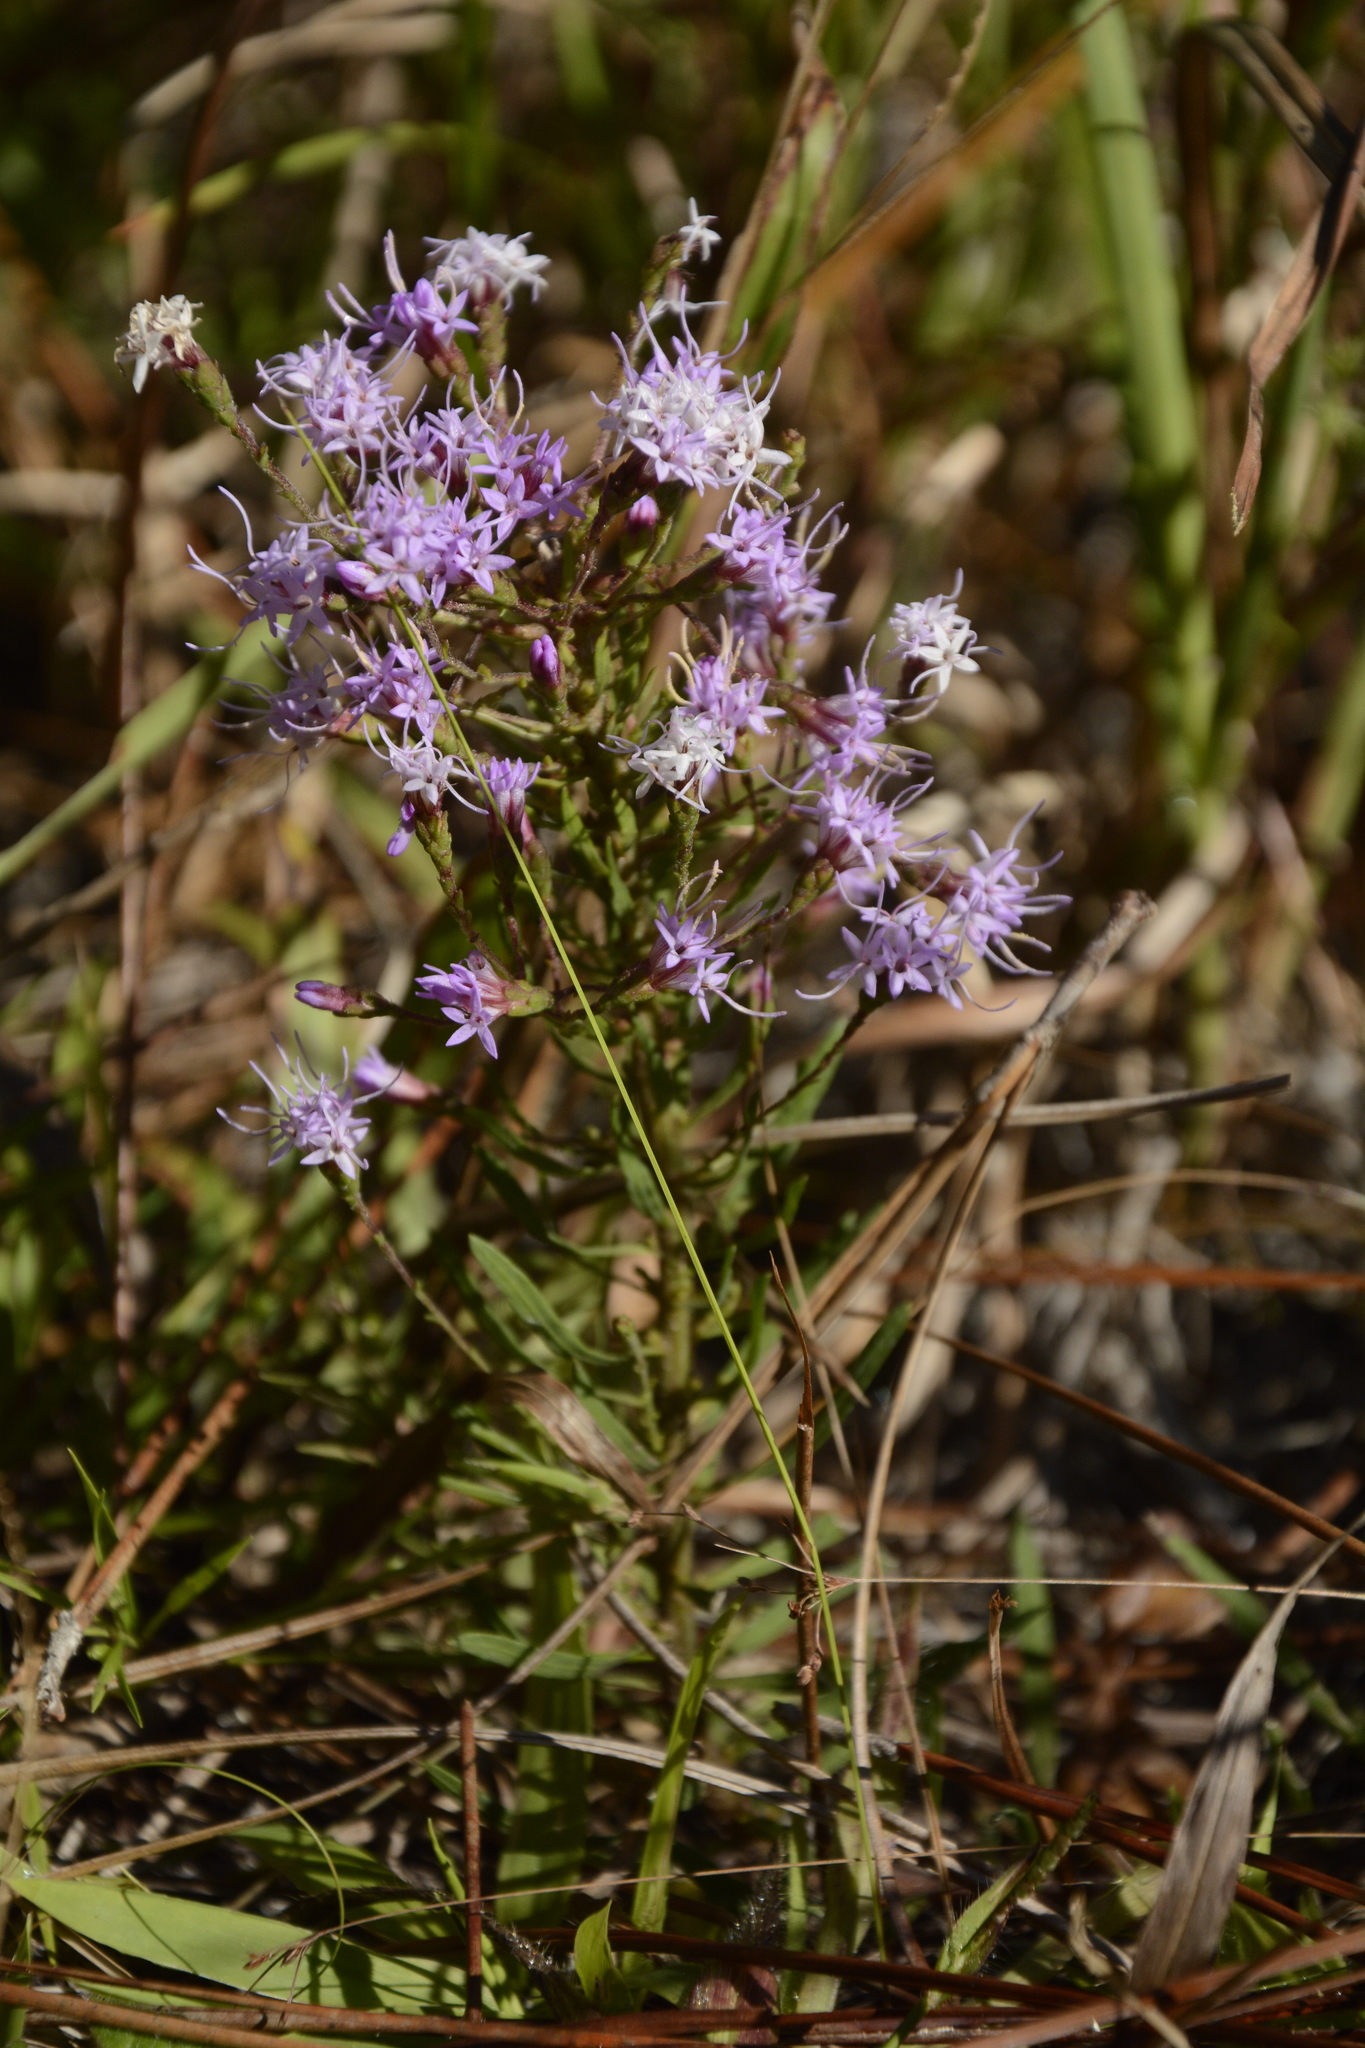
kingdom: Plantae
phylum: Tracheophyta
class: Magnoliopsida
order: Asterales
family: Asteraceae
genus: Liatris
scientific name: Liatris gracilis
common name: Slender gayfeather
